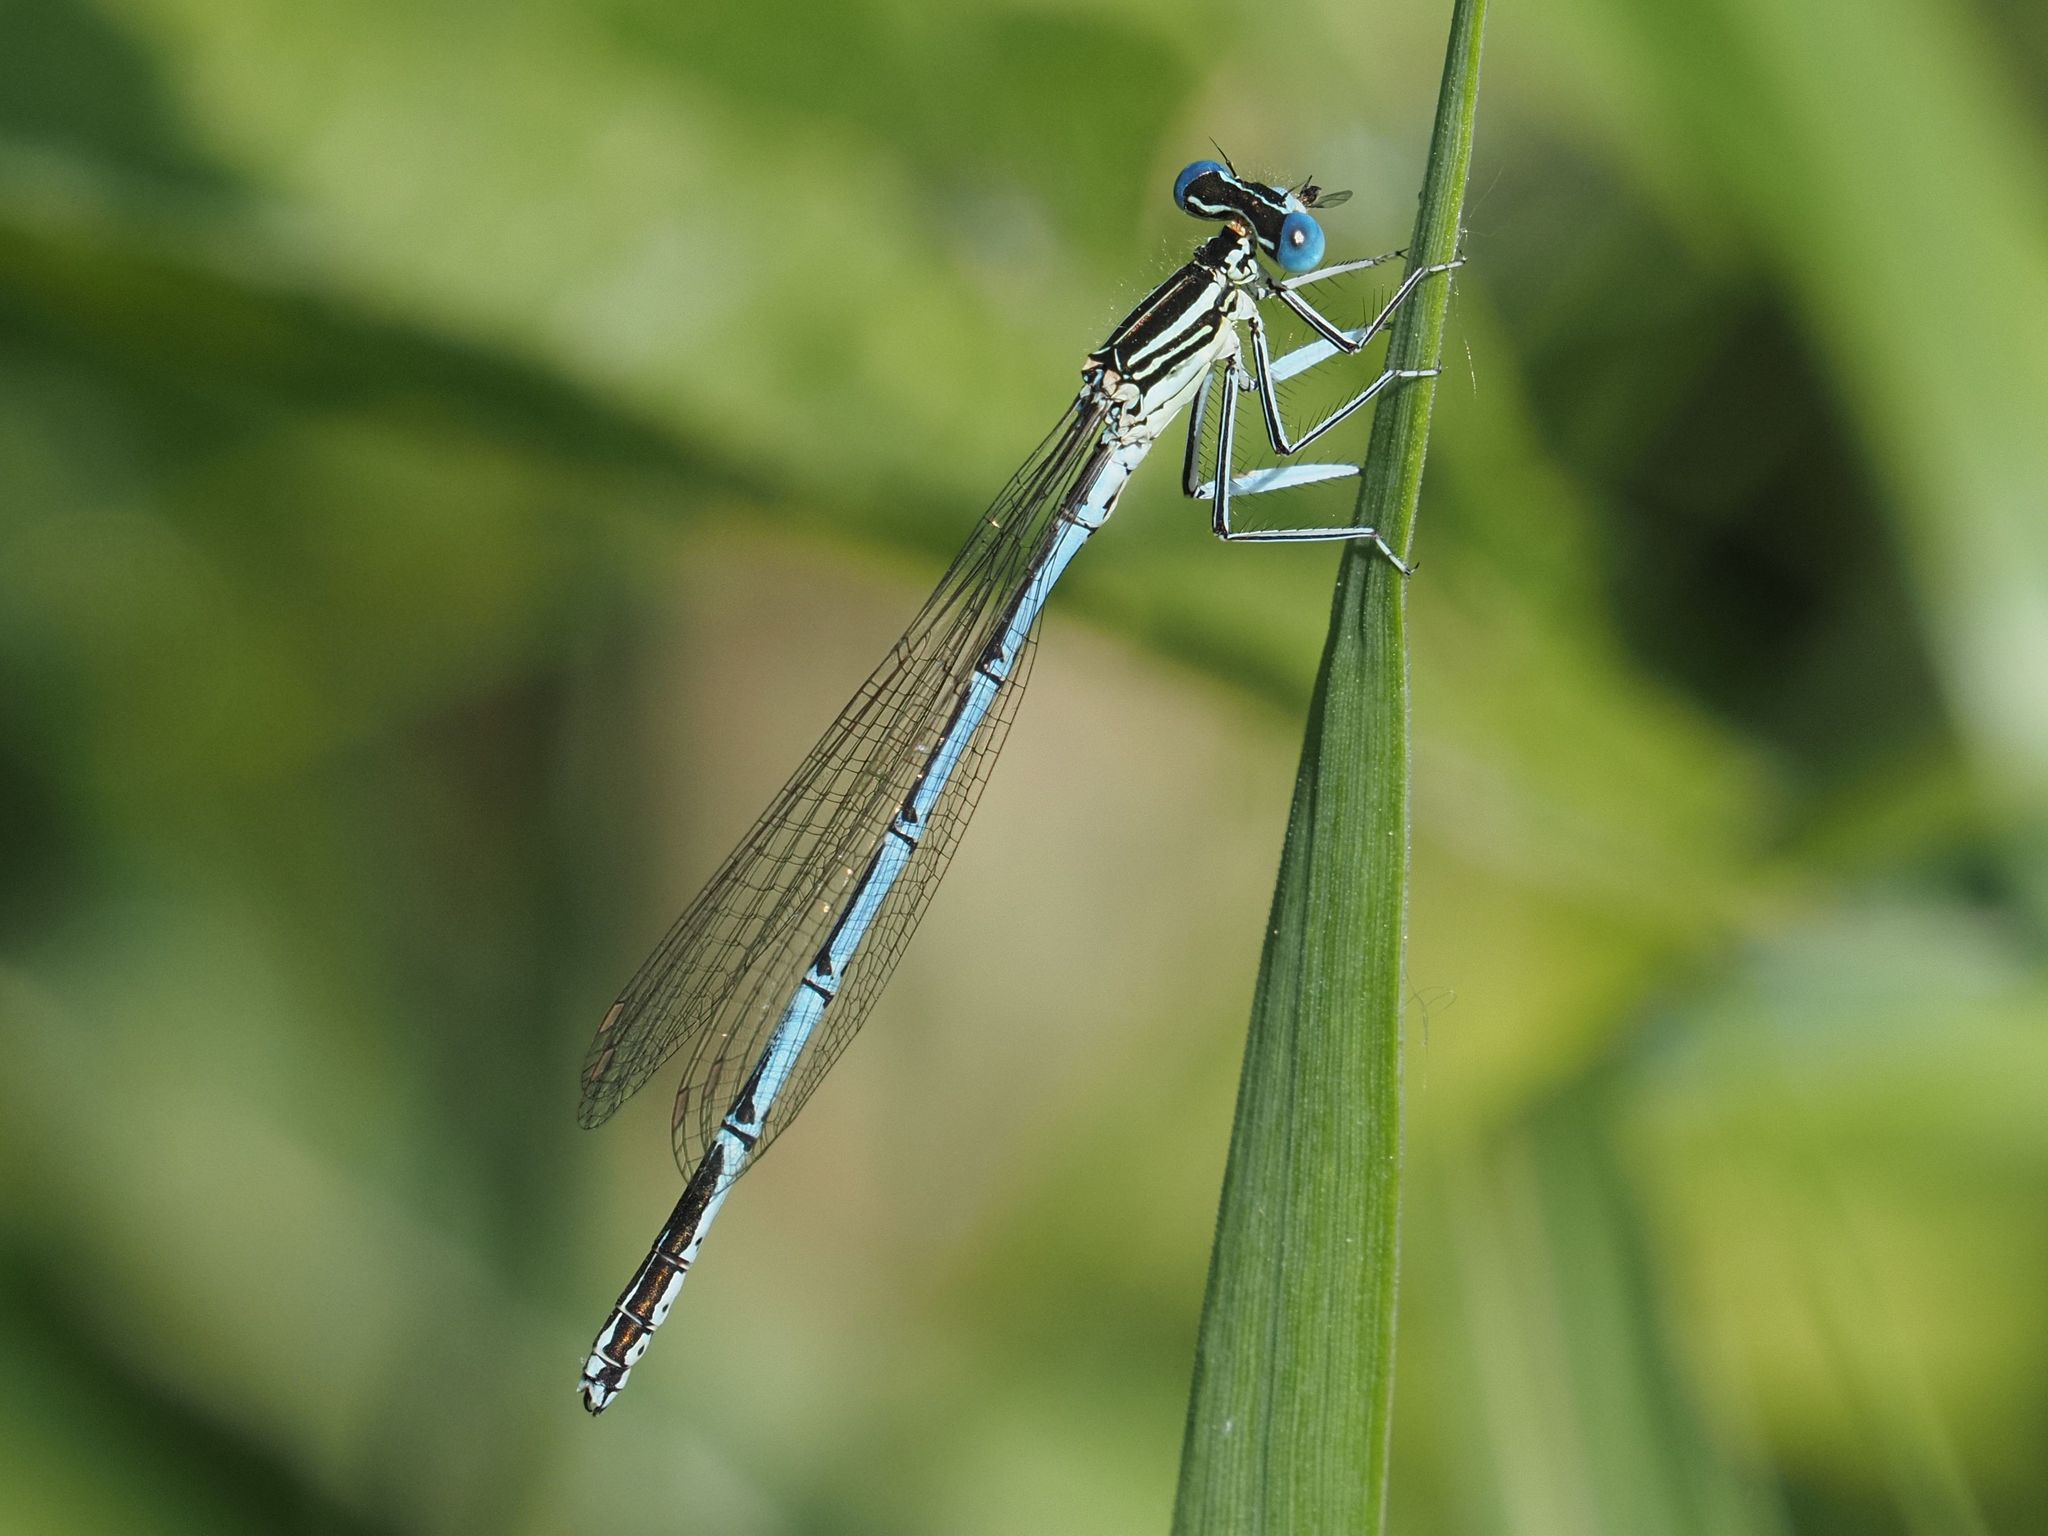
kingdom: Animalia
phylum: Arthropoda
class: Insecta
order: Odonata
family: Platycnemididae
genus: Platycnemis
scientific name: Platycnemis pennipes
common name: White-legged damselfly
